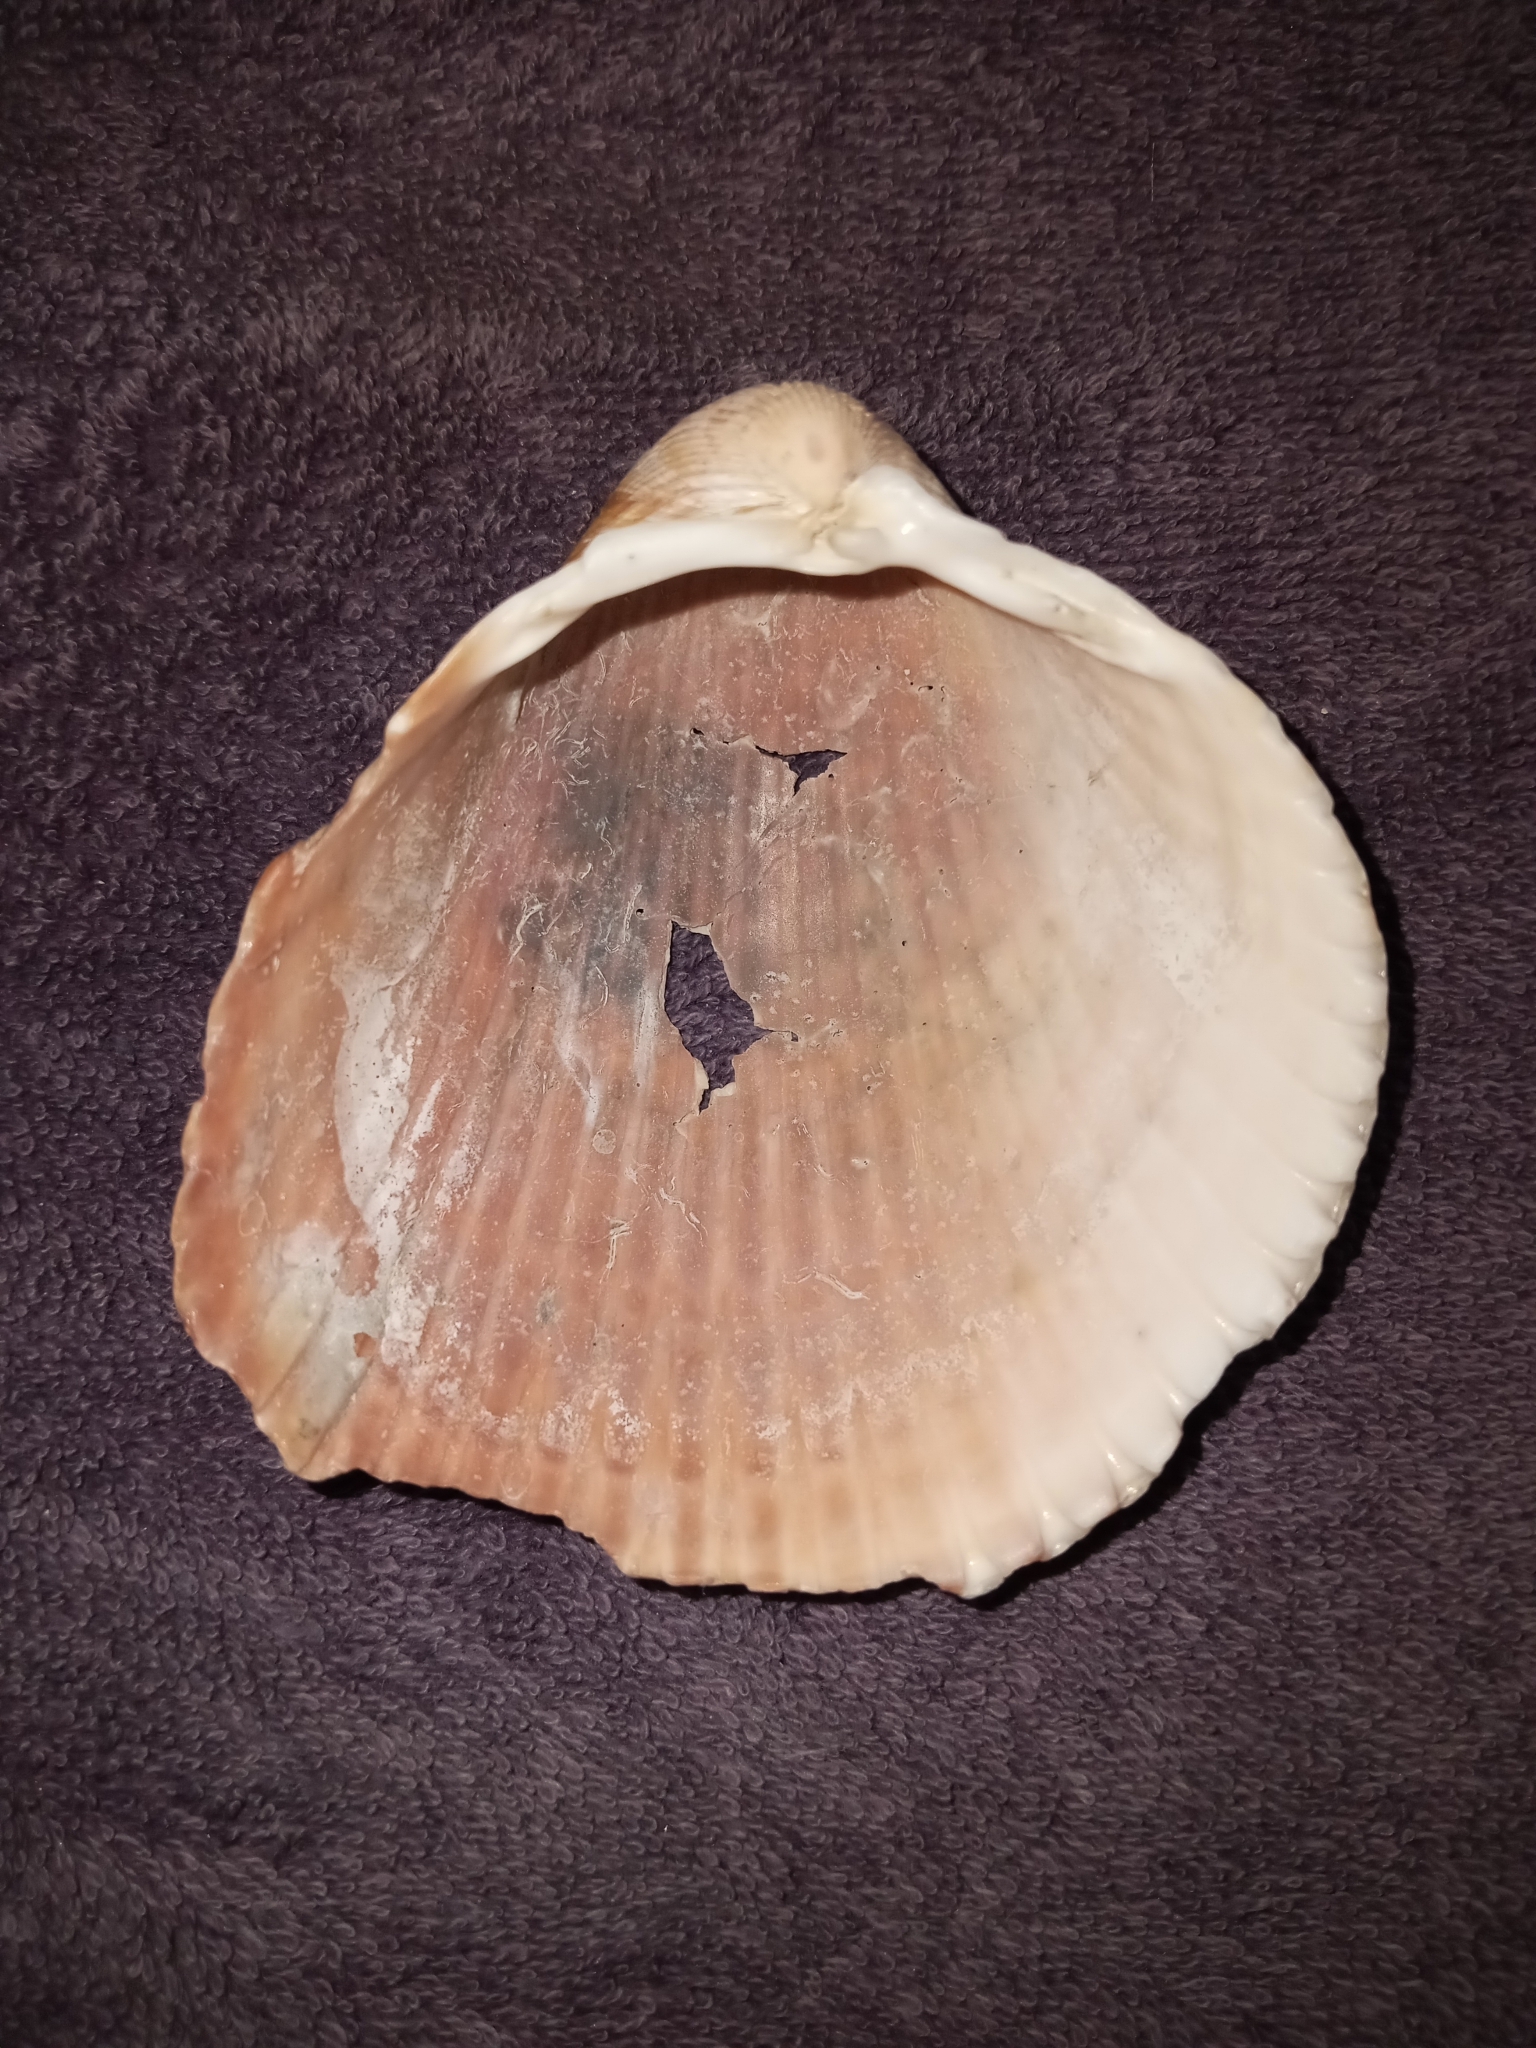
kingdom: Animalia
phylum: Mollusca
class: Bivalvia
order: Cardiida
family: Cardiidae
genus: Dinocardium
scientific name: Dinocardium robustum
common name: Atlantic giant cockle
